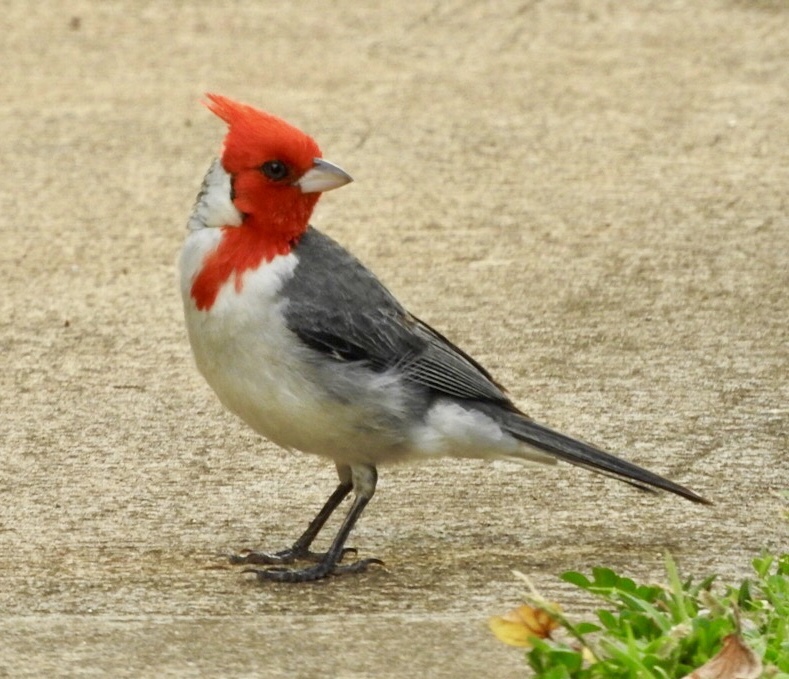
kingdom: Animalia
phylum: Chordata
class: Aves
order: Passeriformes
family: Thraupidae
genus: Paroaria
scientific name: Paroaria coronata
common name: Red-crested cardinal
